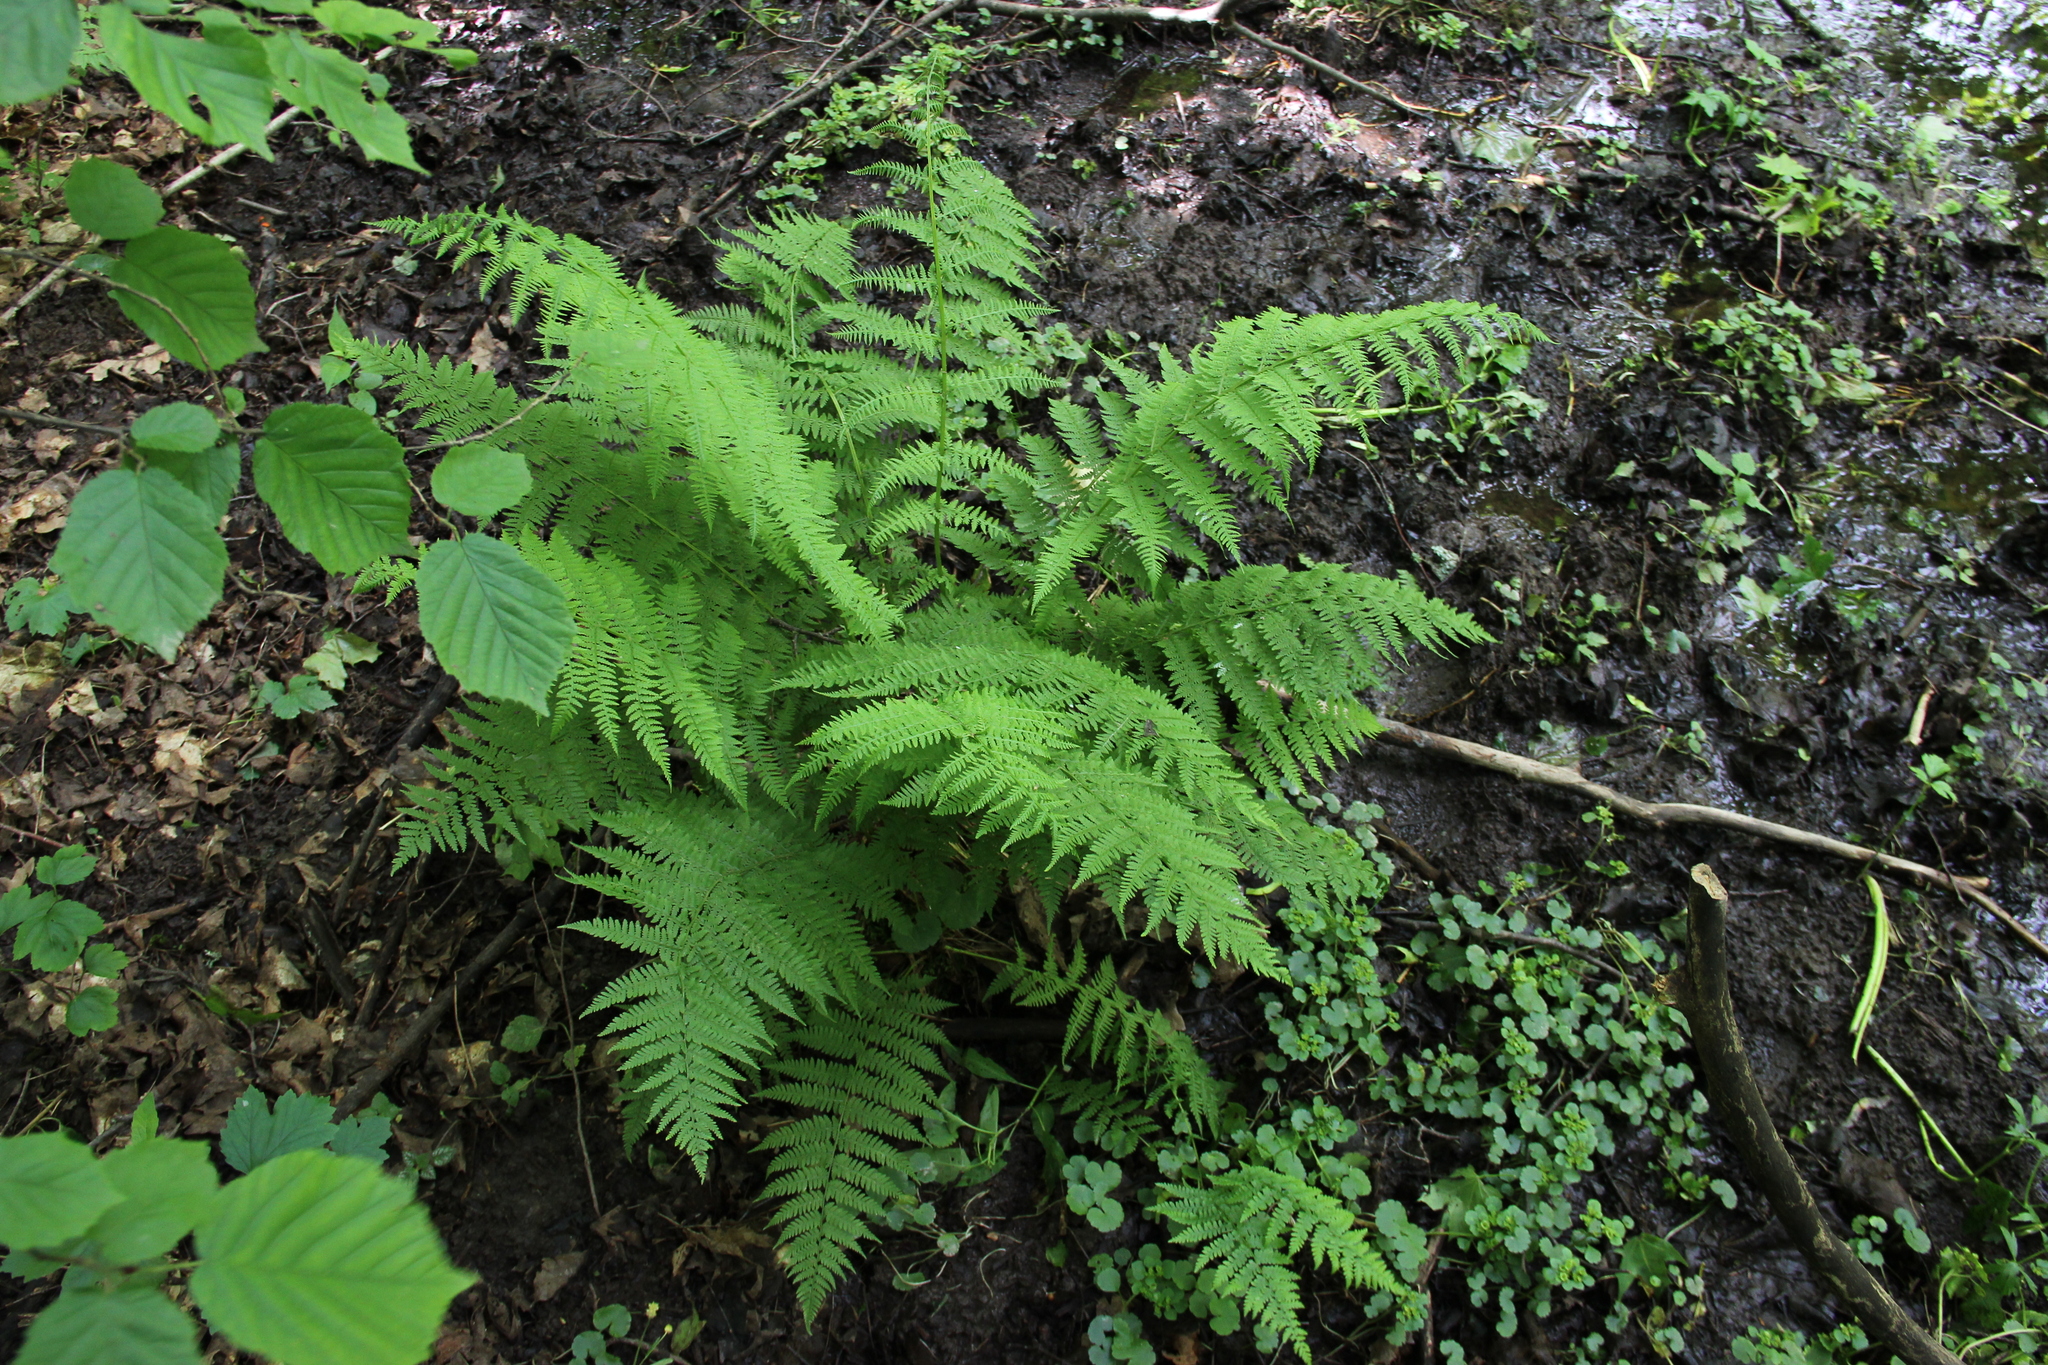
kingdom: Plantae
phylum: Tracheophyta
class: Polypodiopsida
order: Polypodiales
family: Athyriaceae
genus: Athyrium
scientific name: Athyrium filix-femina
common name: Lady fern
